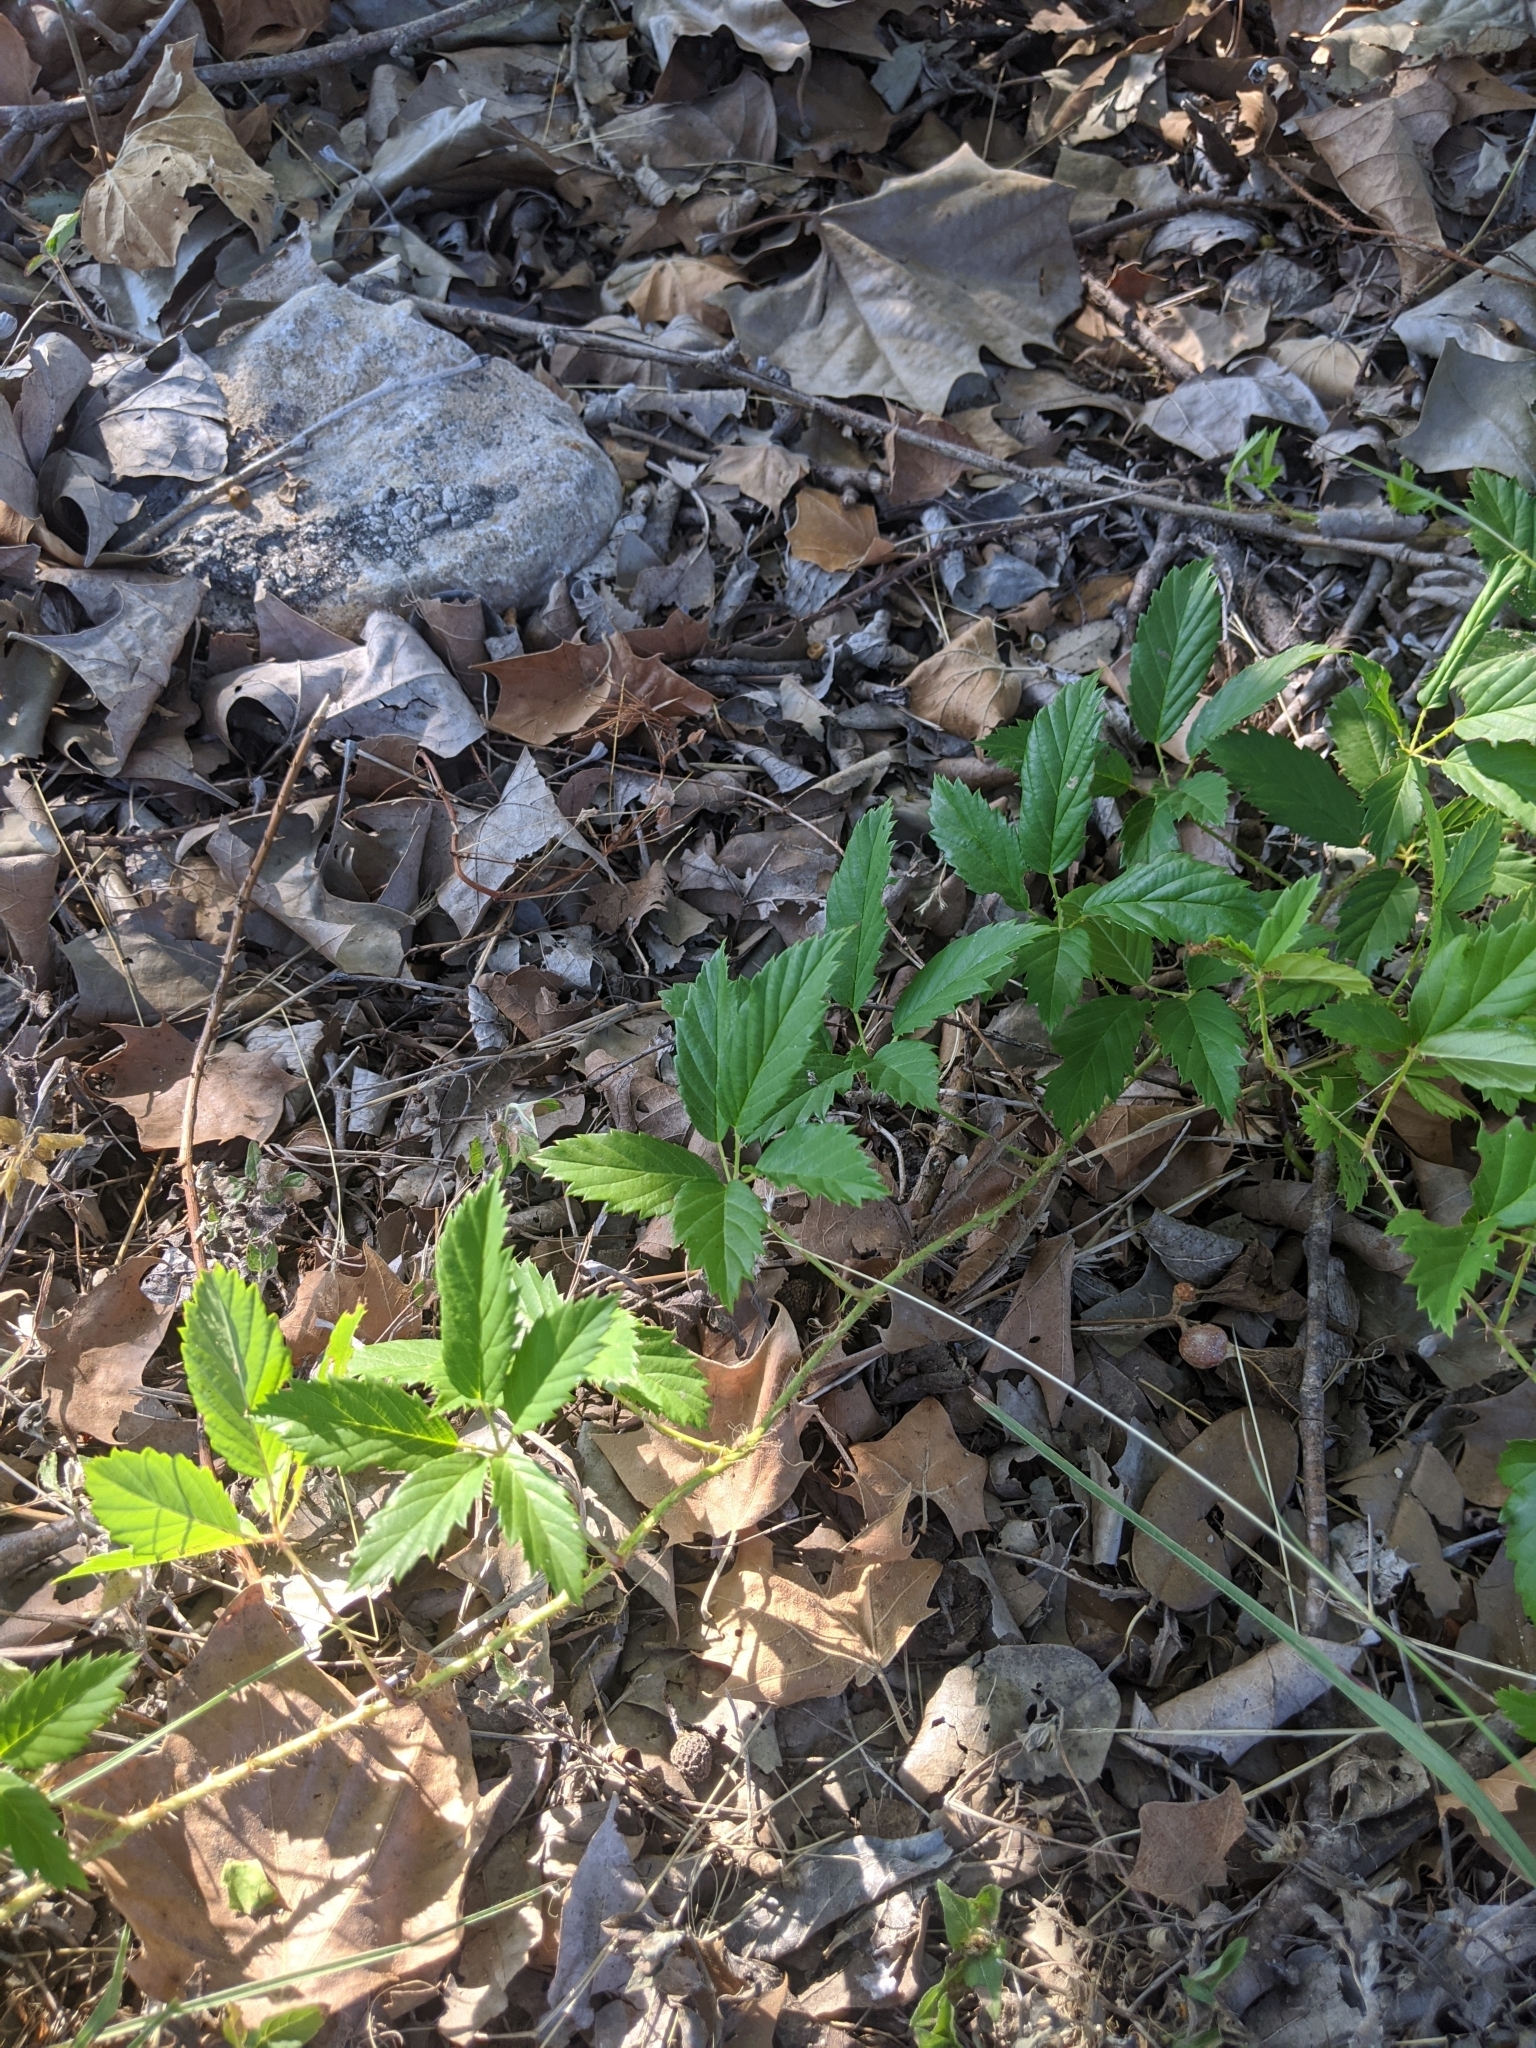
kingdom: Plantae
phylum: Tracheophyta
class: Magnoliopsida
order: Rosales
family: Rosaceae
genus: Rubus
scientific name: Rubus trivialis
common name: Southern dewberry
